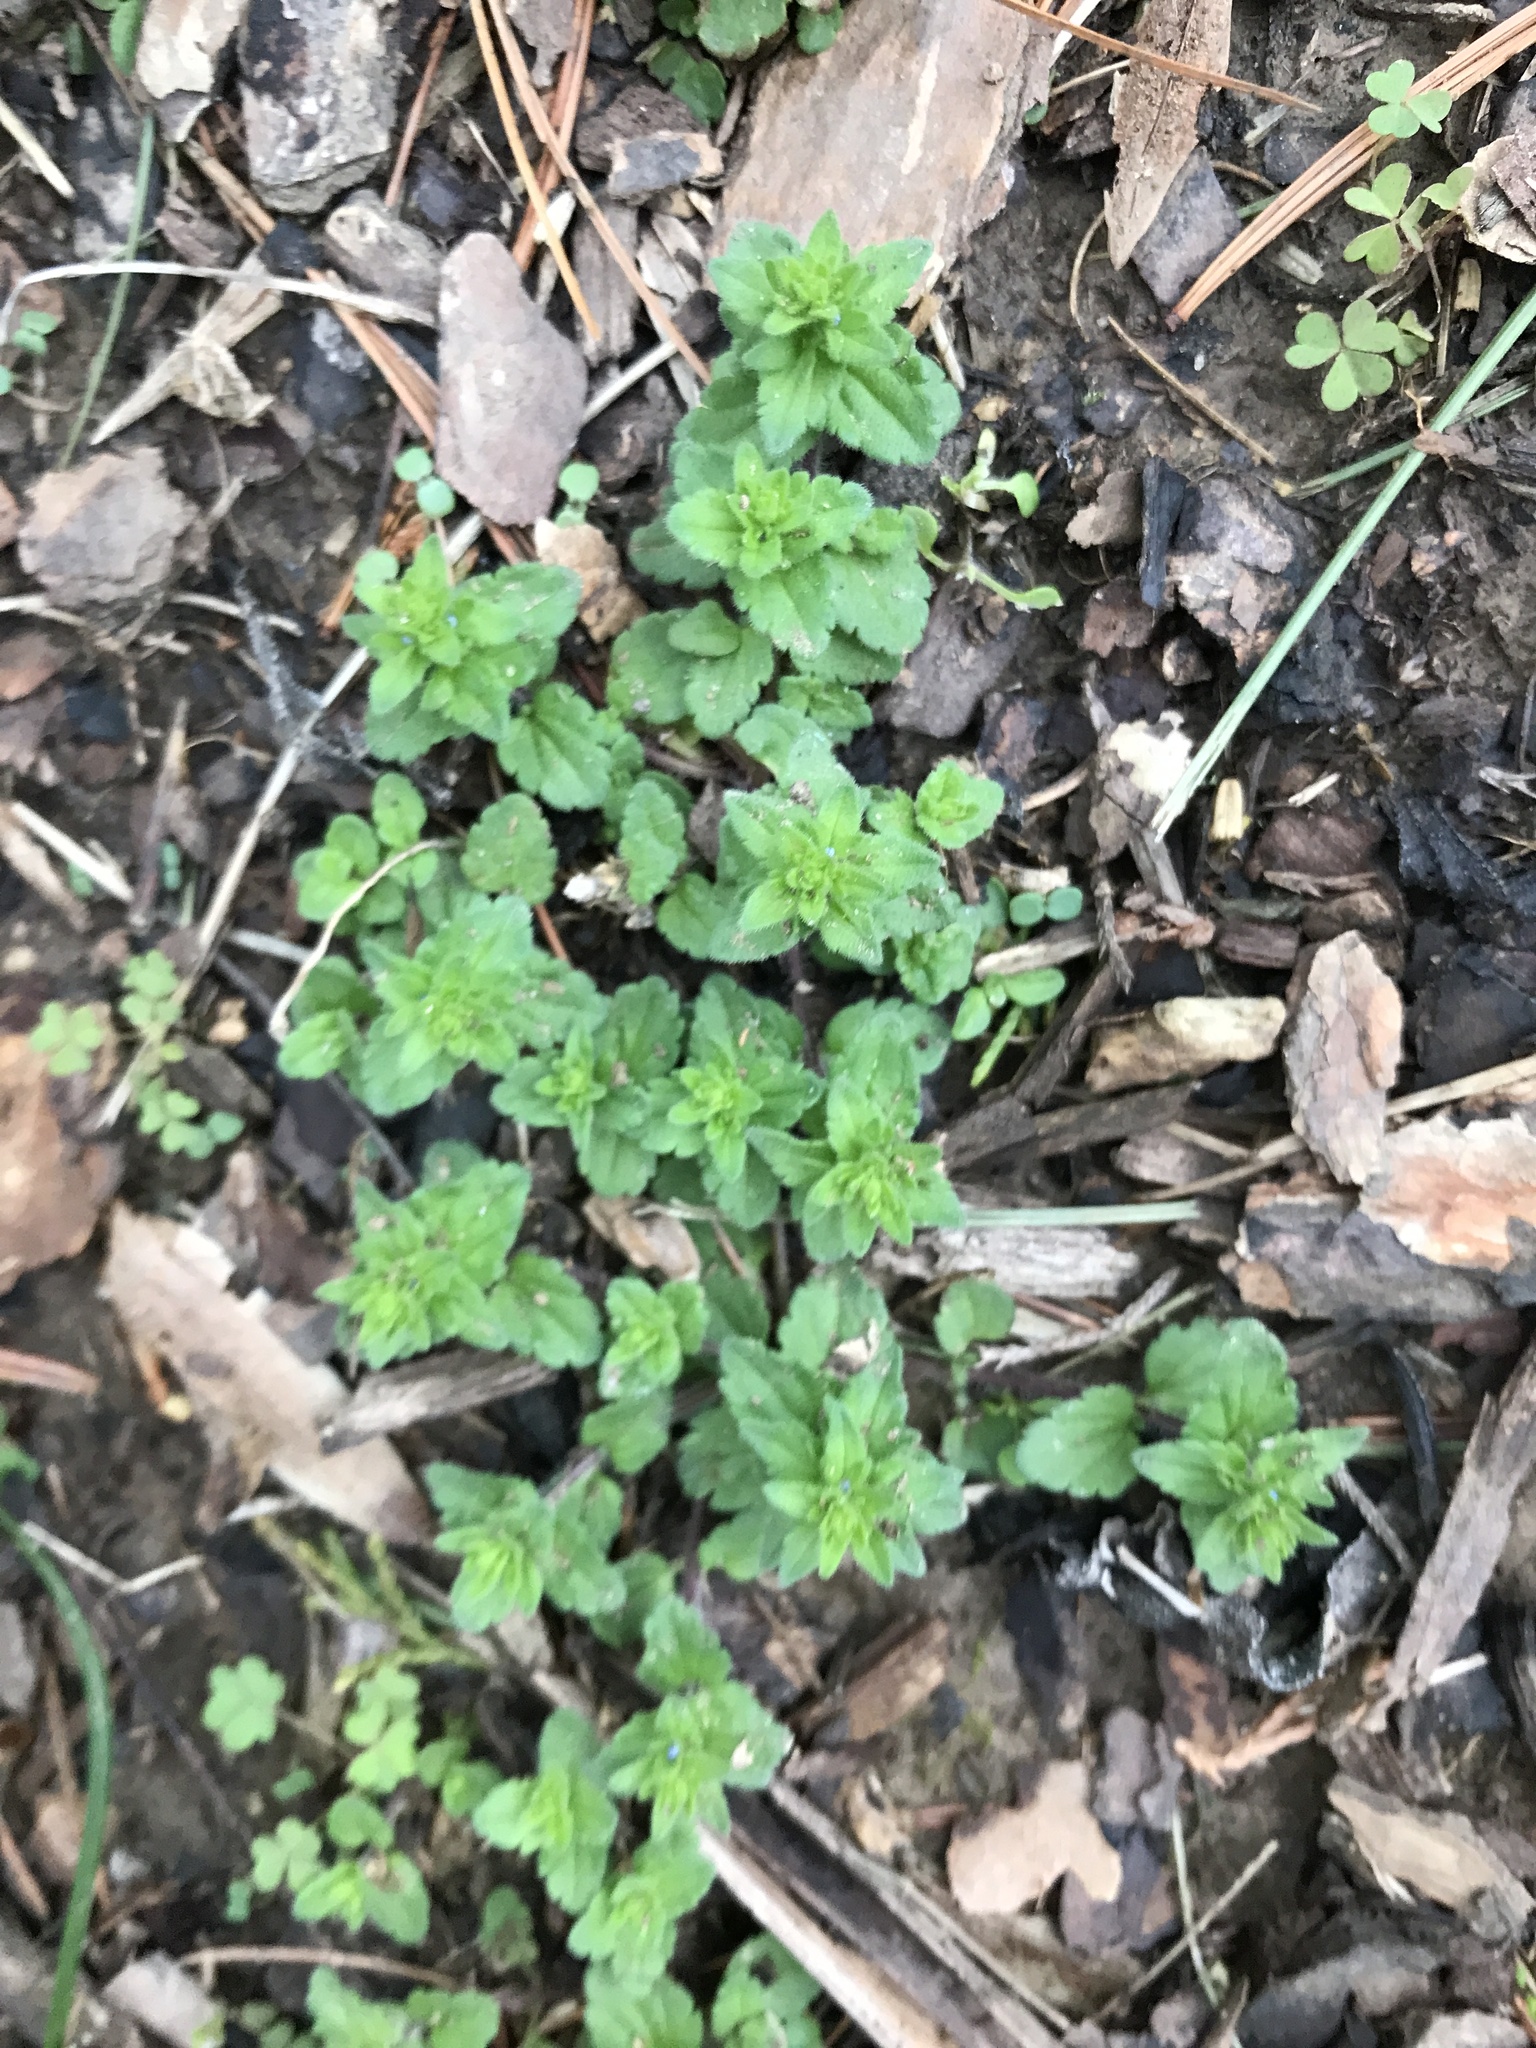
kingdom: Plantae
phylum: Tracheophyta
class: Magnoliopsida
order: Lamiales
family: Plantaginaceae
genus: Veronica
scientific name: Veronica arvensis
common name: Corn speedwell
